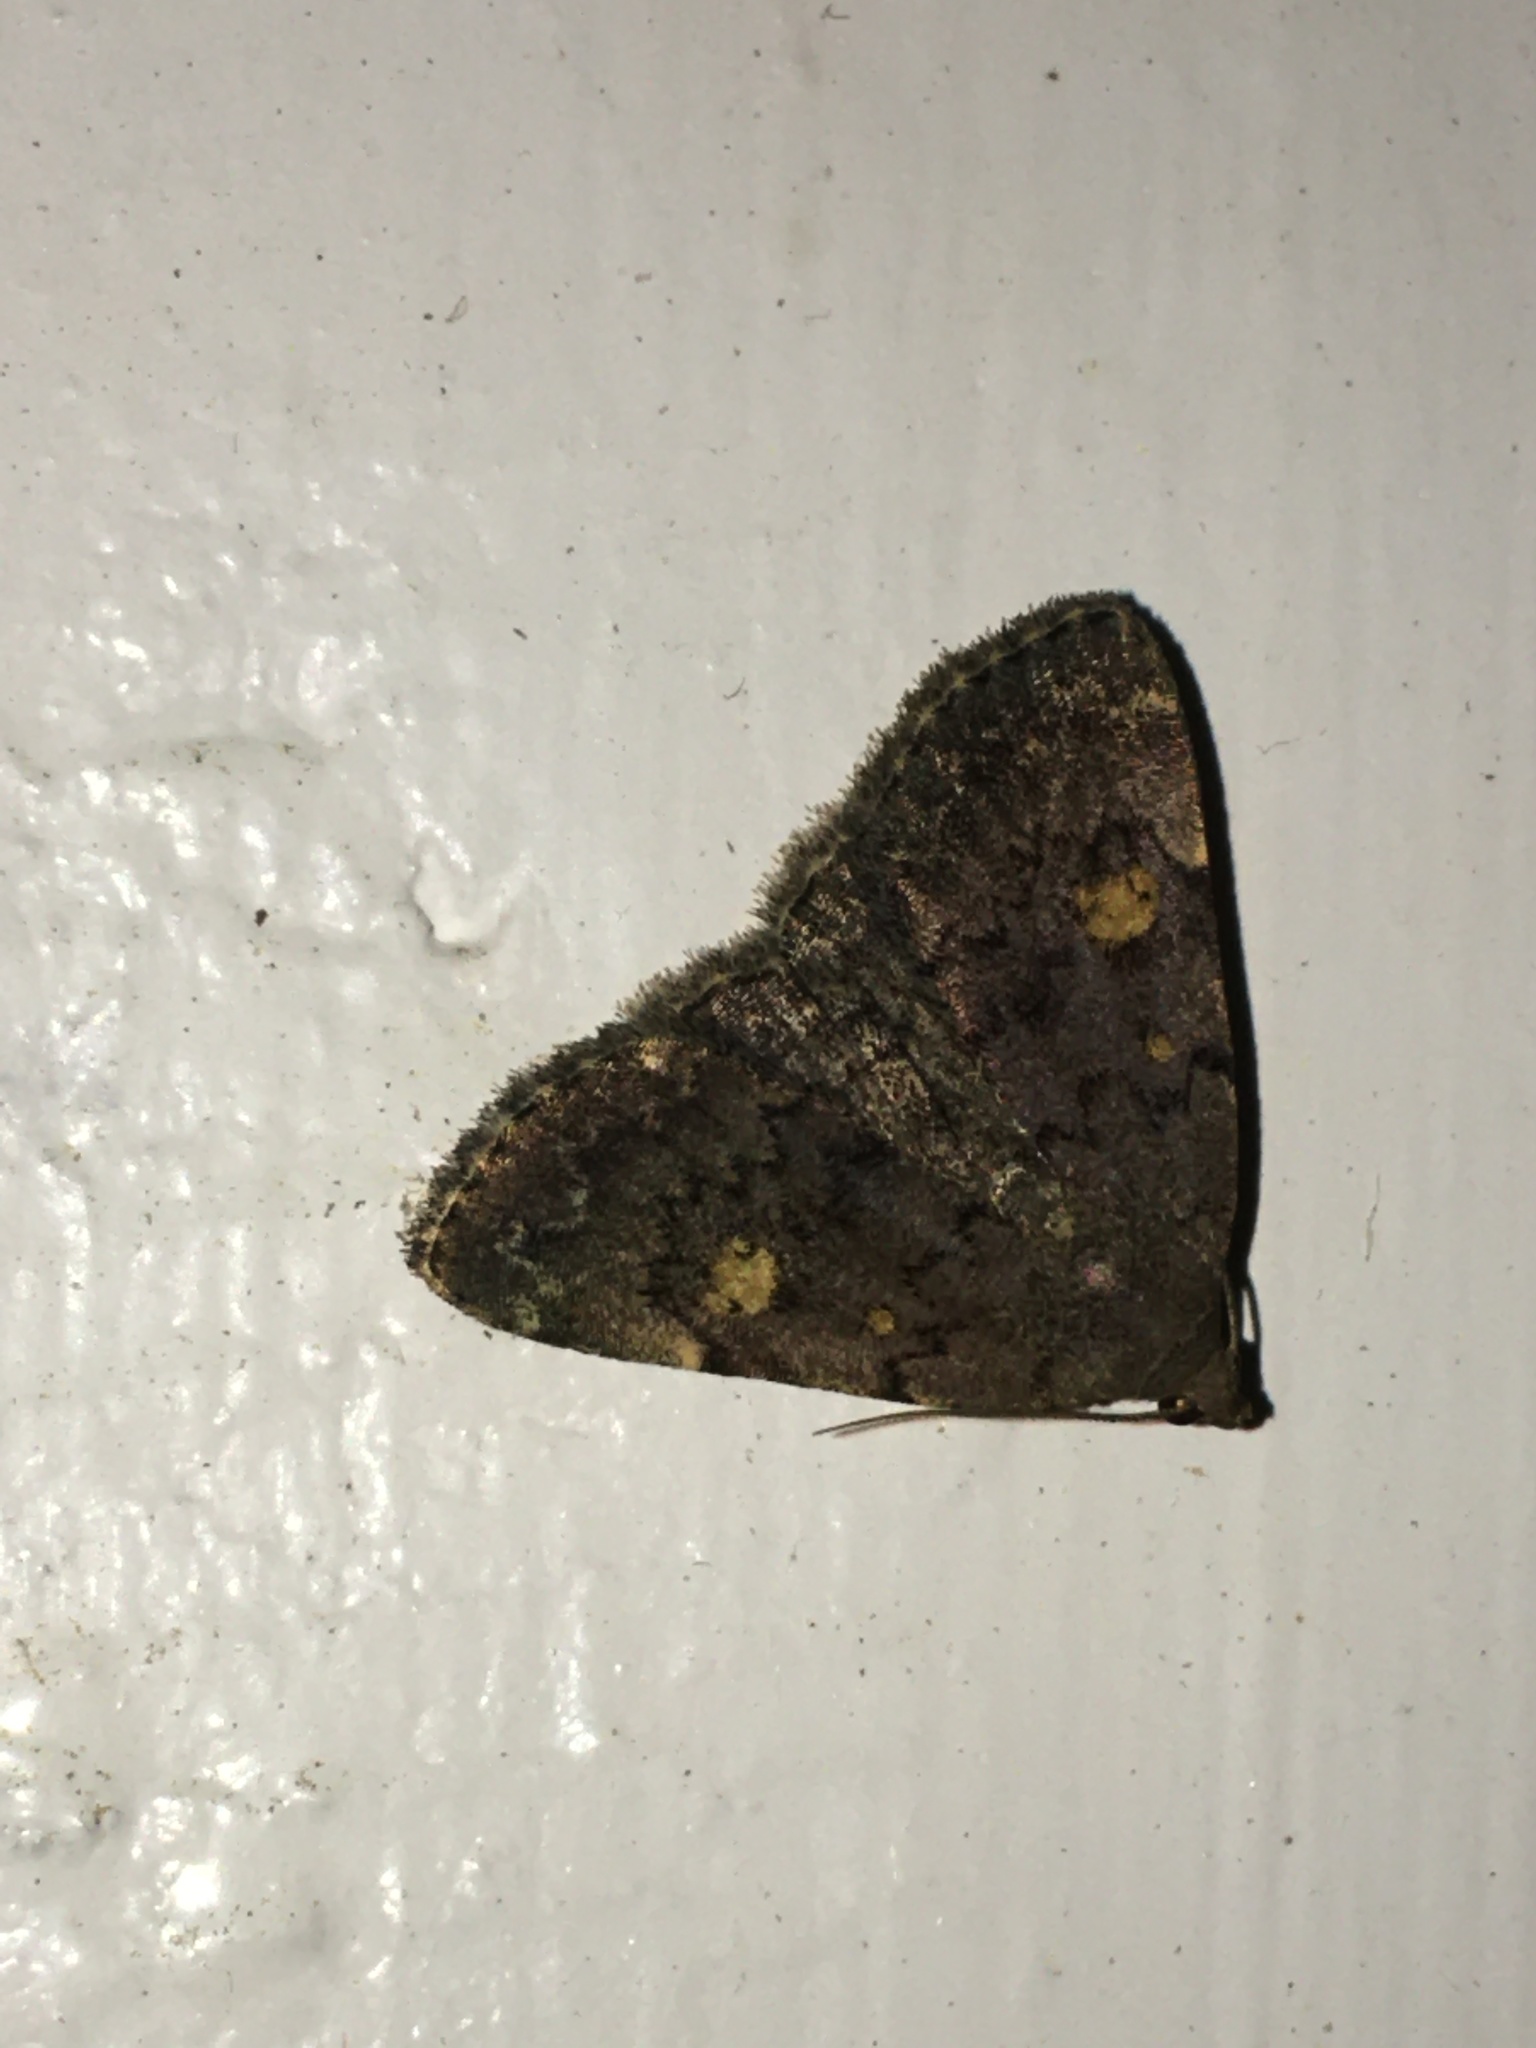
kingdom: Animalia
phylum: Arthropoda
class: Insecta
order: Lepidoptera
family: Erebidae
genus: Idia
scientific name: Idia aemula
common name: Common idia moth
